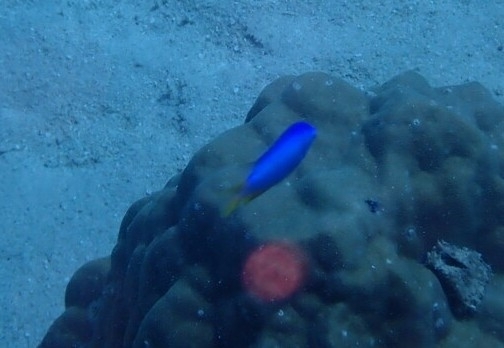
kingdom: Animalia
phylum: Chordata
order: Perciformes
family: Pomacentridae
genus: Pomacentrus
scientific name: Pomacentrus coelestis
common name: Neon damsel
